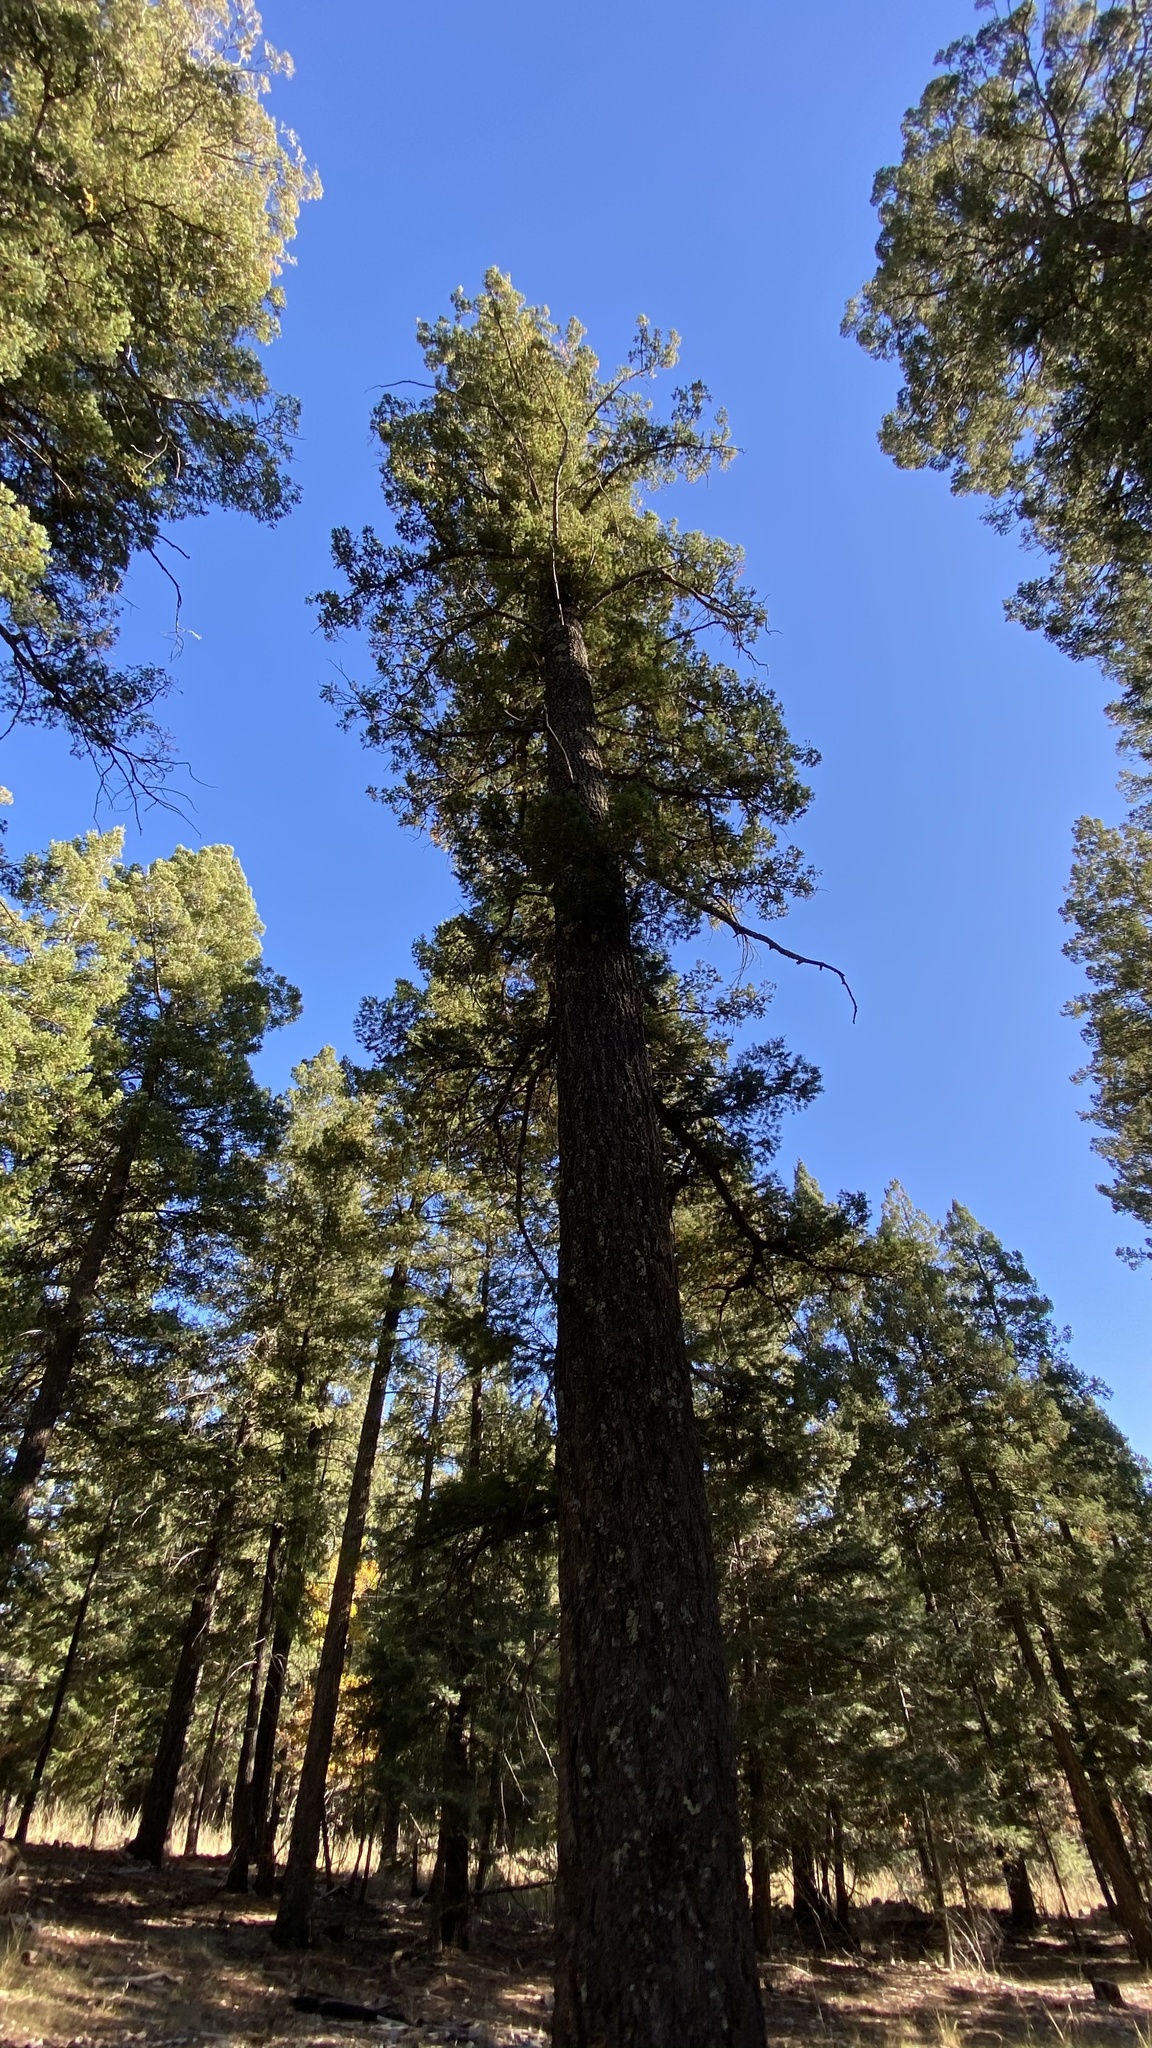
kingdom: Plantae
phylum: Tracheophyta
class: Pinopsida
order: Pinales
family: Pinaceae
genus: Pseudotsuga
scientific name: Pseudotsuga menziesii
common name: Douglas fir
